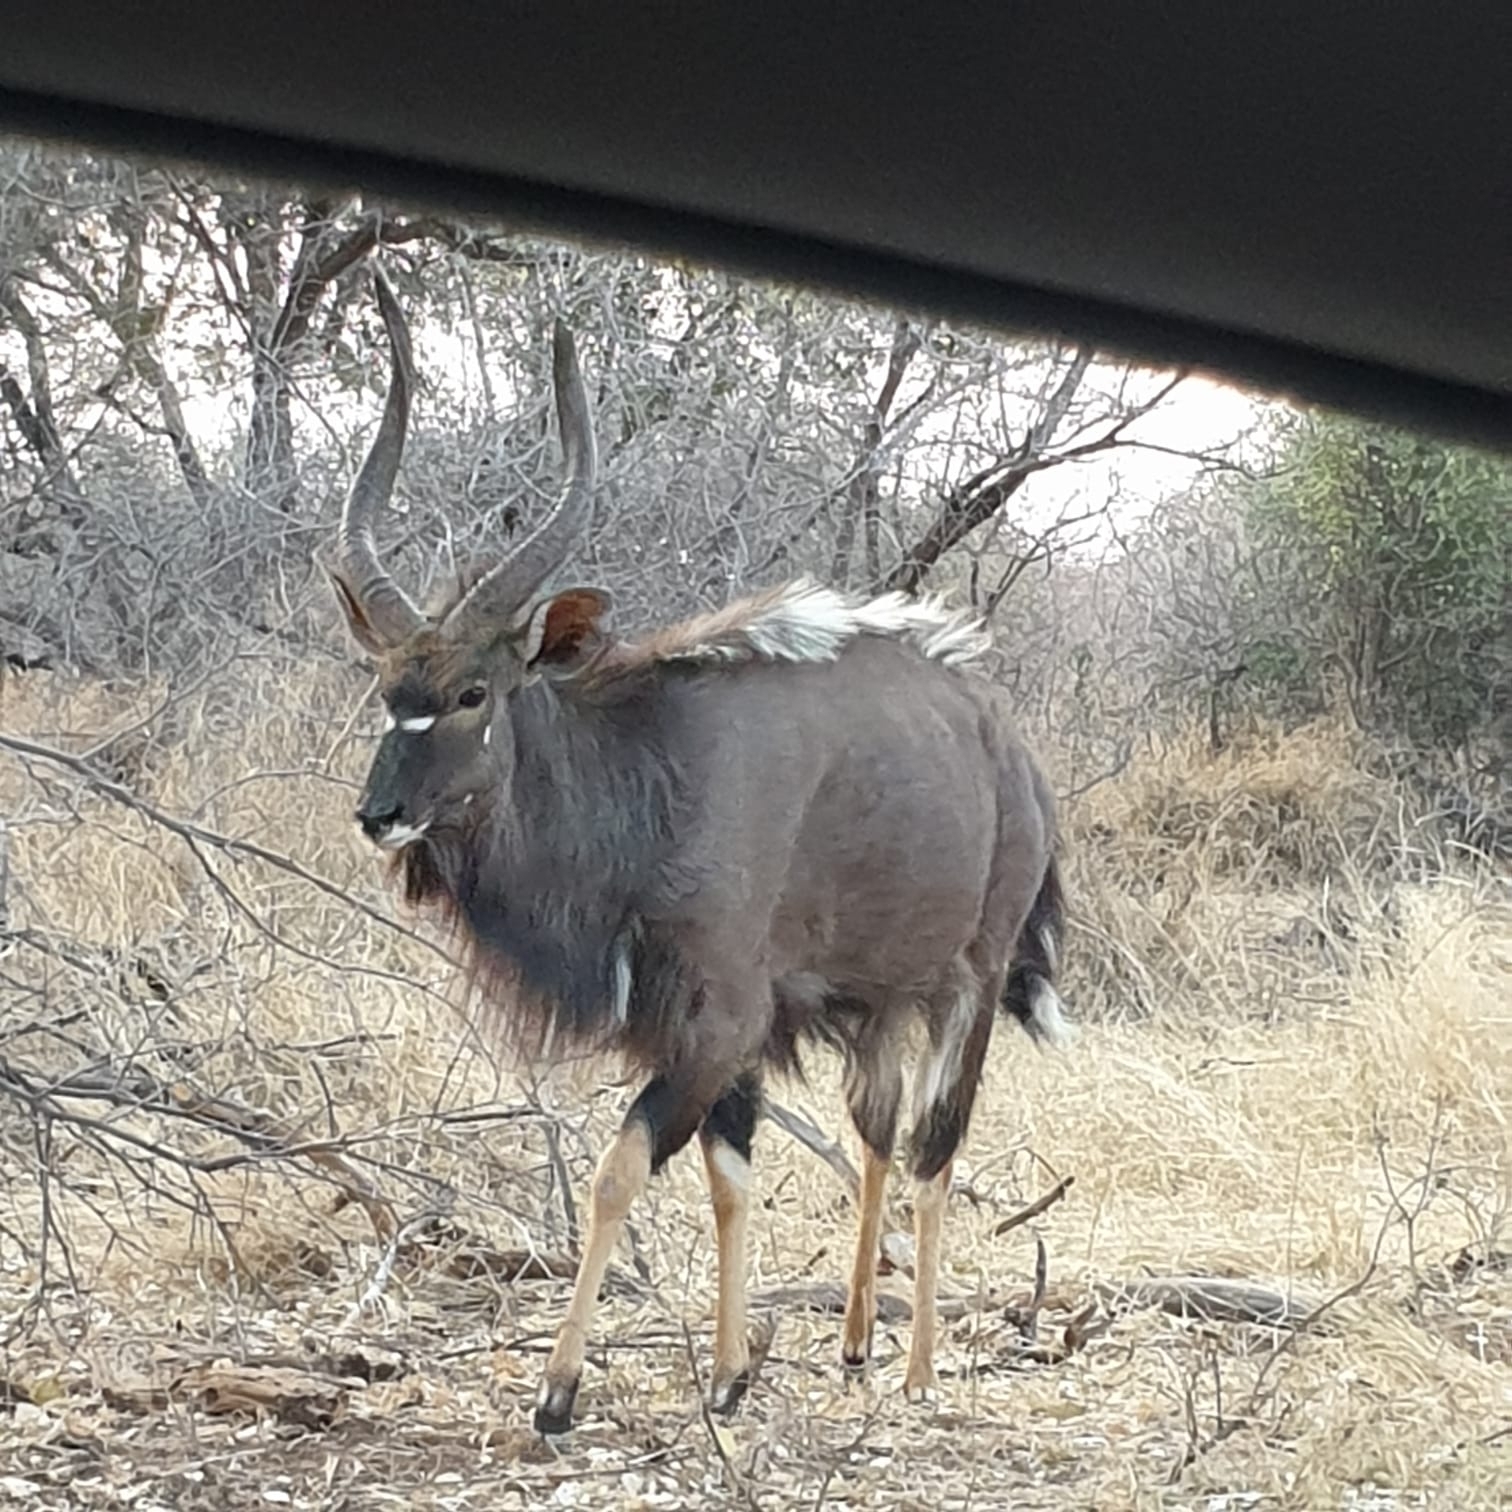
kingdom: Animalia
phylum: Chordata
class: Mammalia
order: Artiodactyla
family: Bovidae
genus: Tragelaphus
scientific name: Tragelaphus angasii
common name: Nyala
